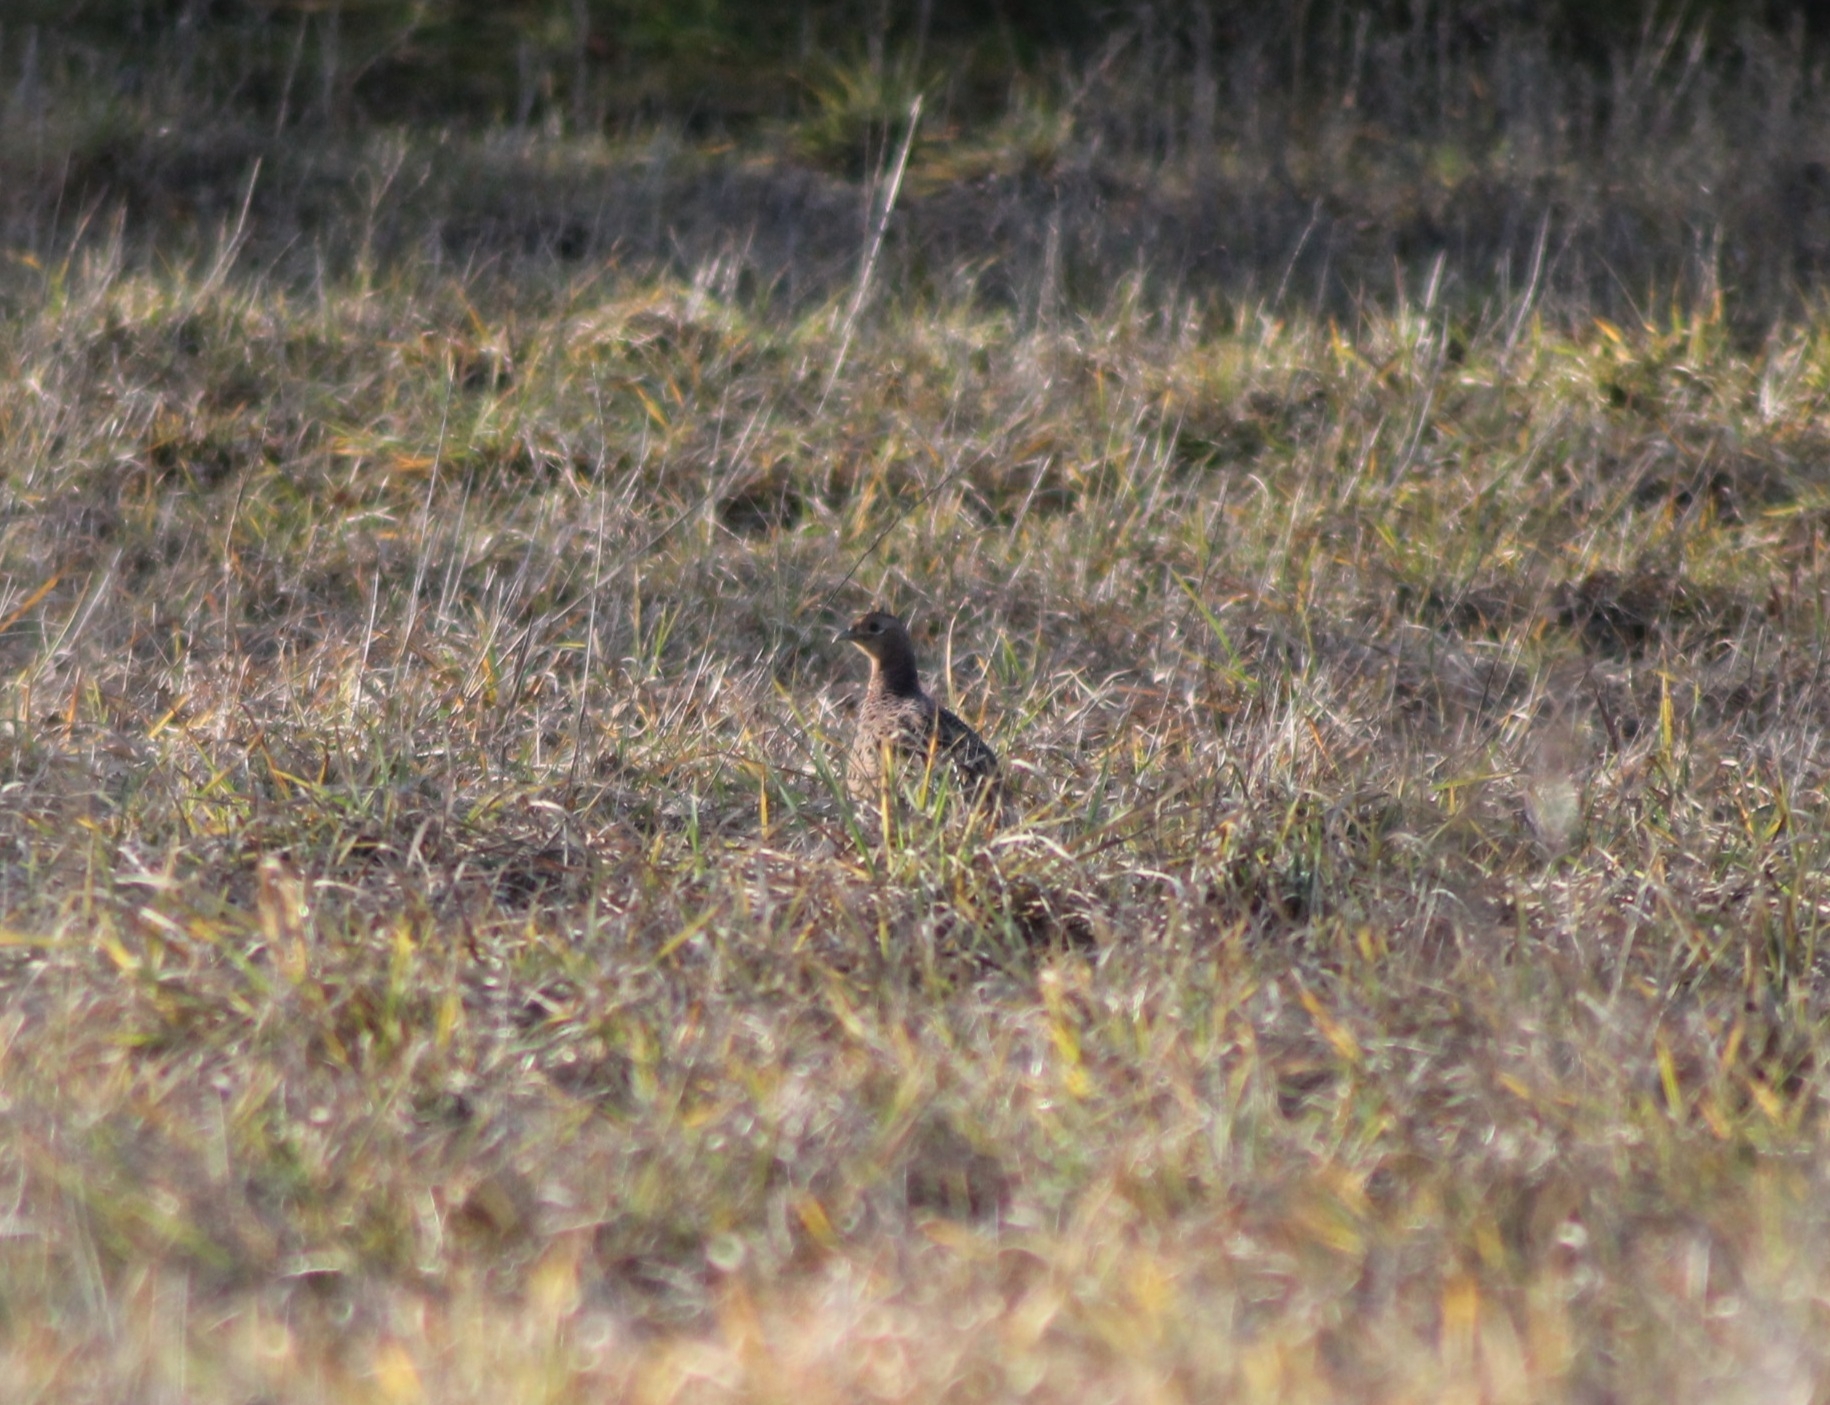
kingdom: Animalia
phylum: Chordata
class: Aves
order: Galliformes
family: Phasianidae
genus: Phasianus
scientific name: Phasianus colchicus
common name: Common pheasant
